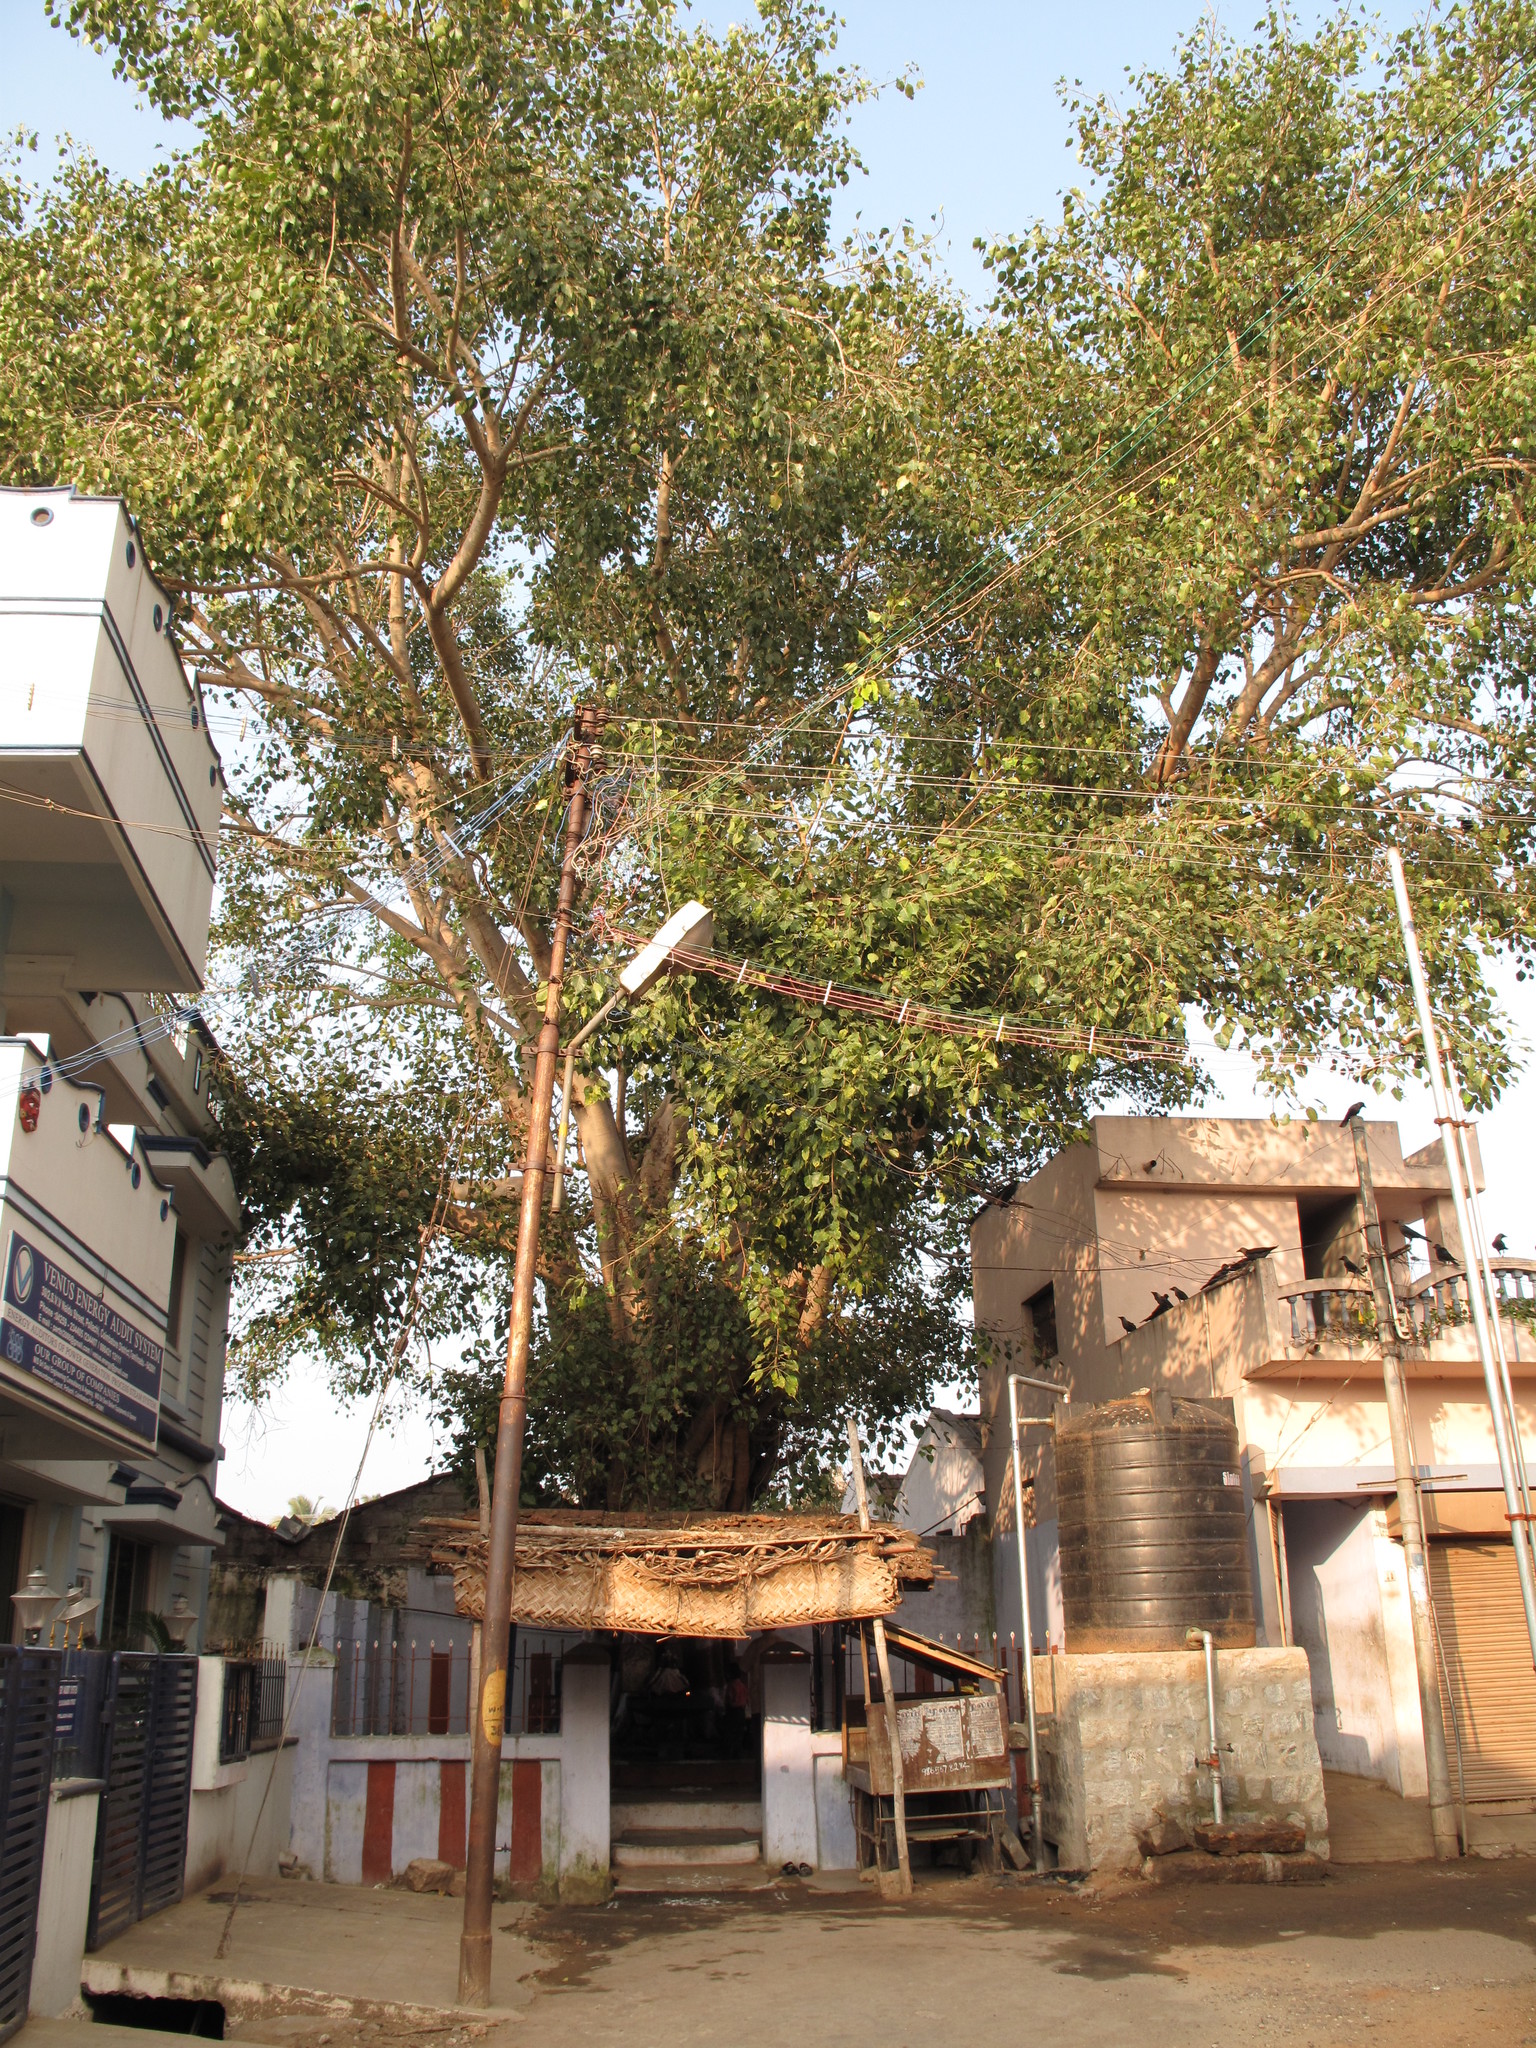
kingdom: Plantae
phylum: Tracheophyta
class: Magnoliopsida
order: Rosales
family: Moraceae
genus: Ficus
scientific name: Ficus religiosa
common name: Bodhi tree
